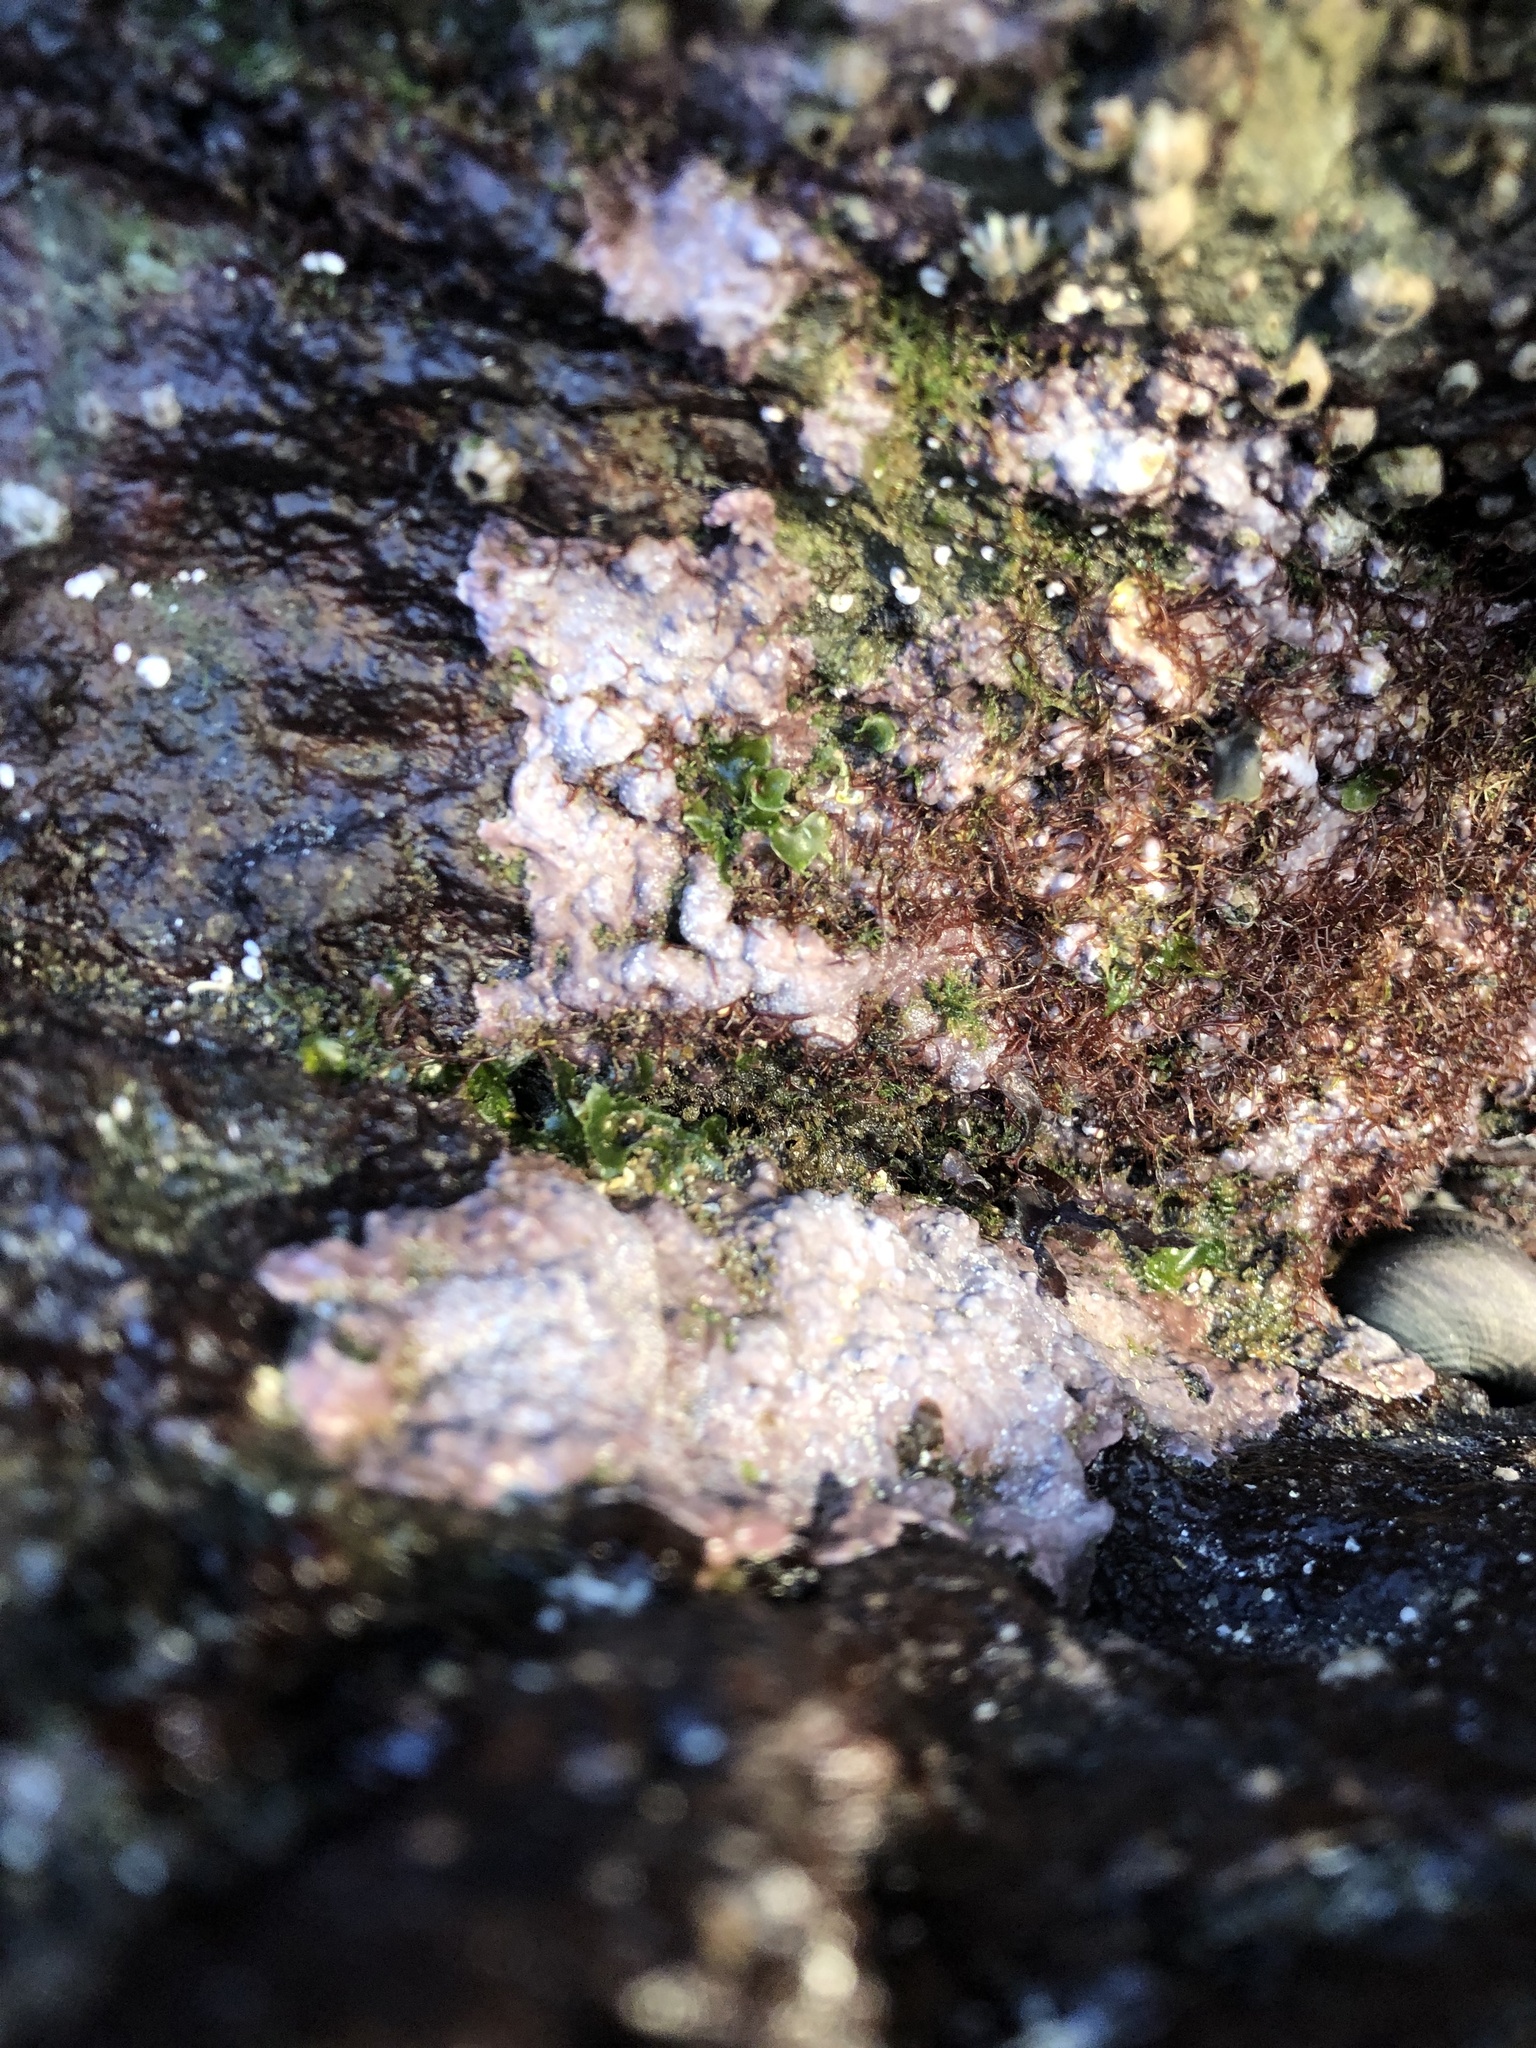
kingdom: Plantae
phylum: Rhodophyta
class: Florideophyceae
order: Corallinales
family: Corallinaceae
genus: Chamberlainium
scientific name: Chamberlainium tumidum
